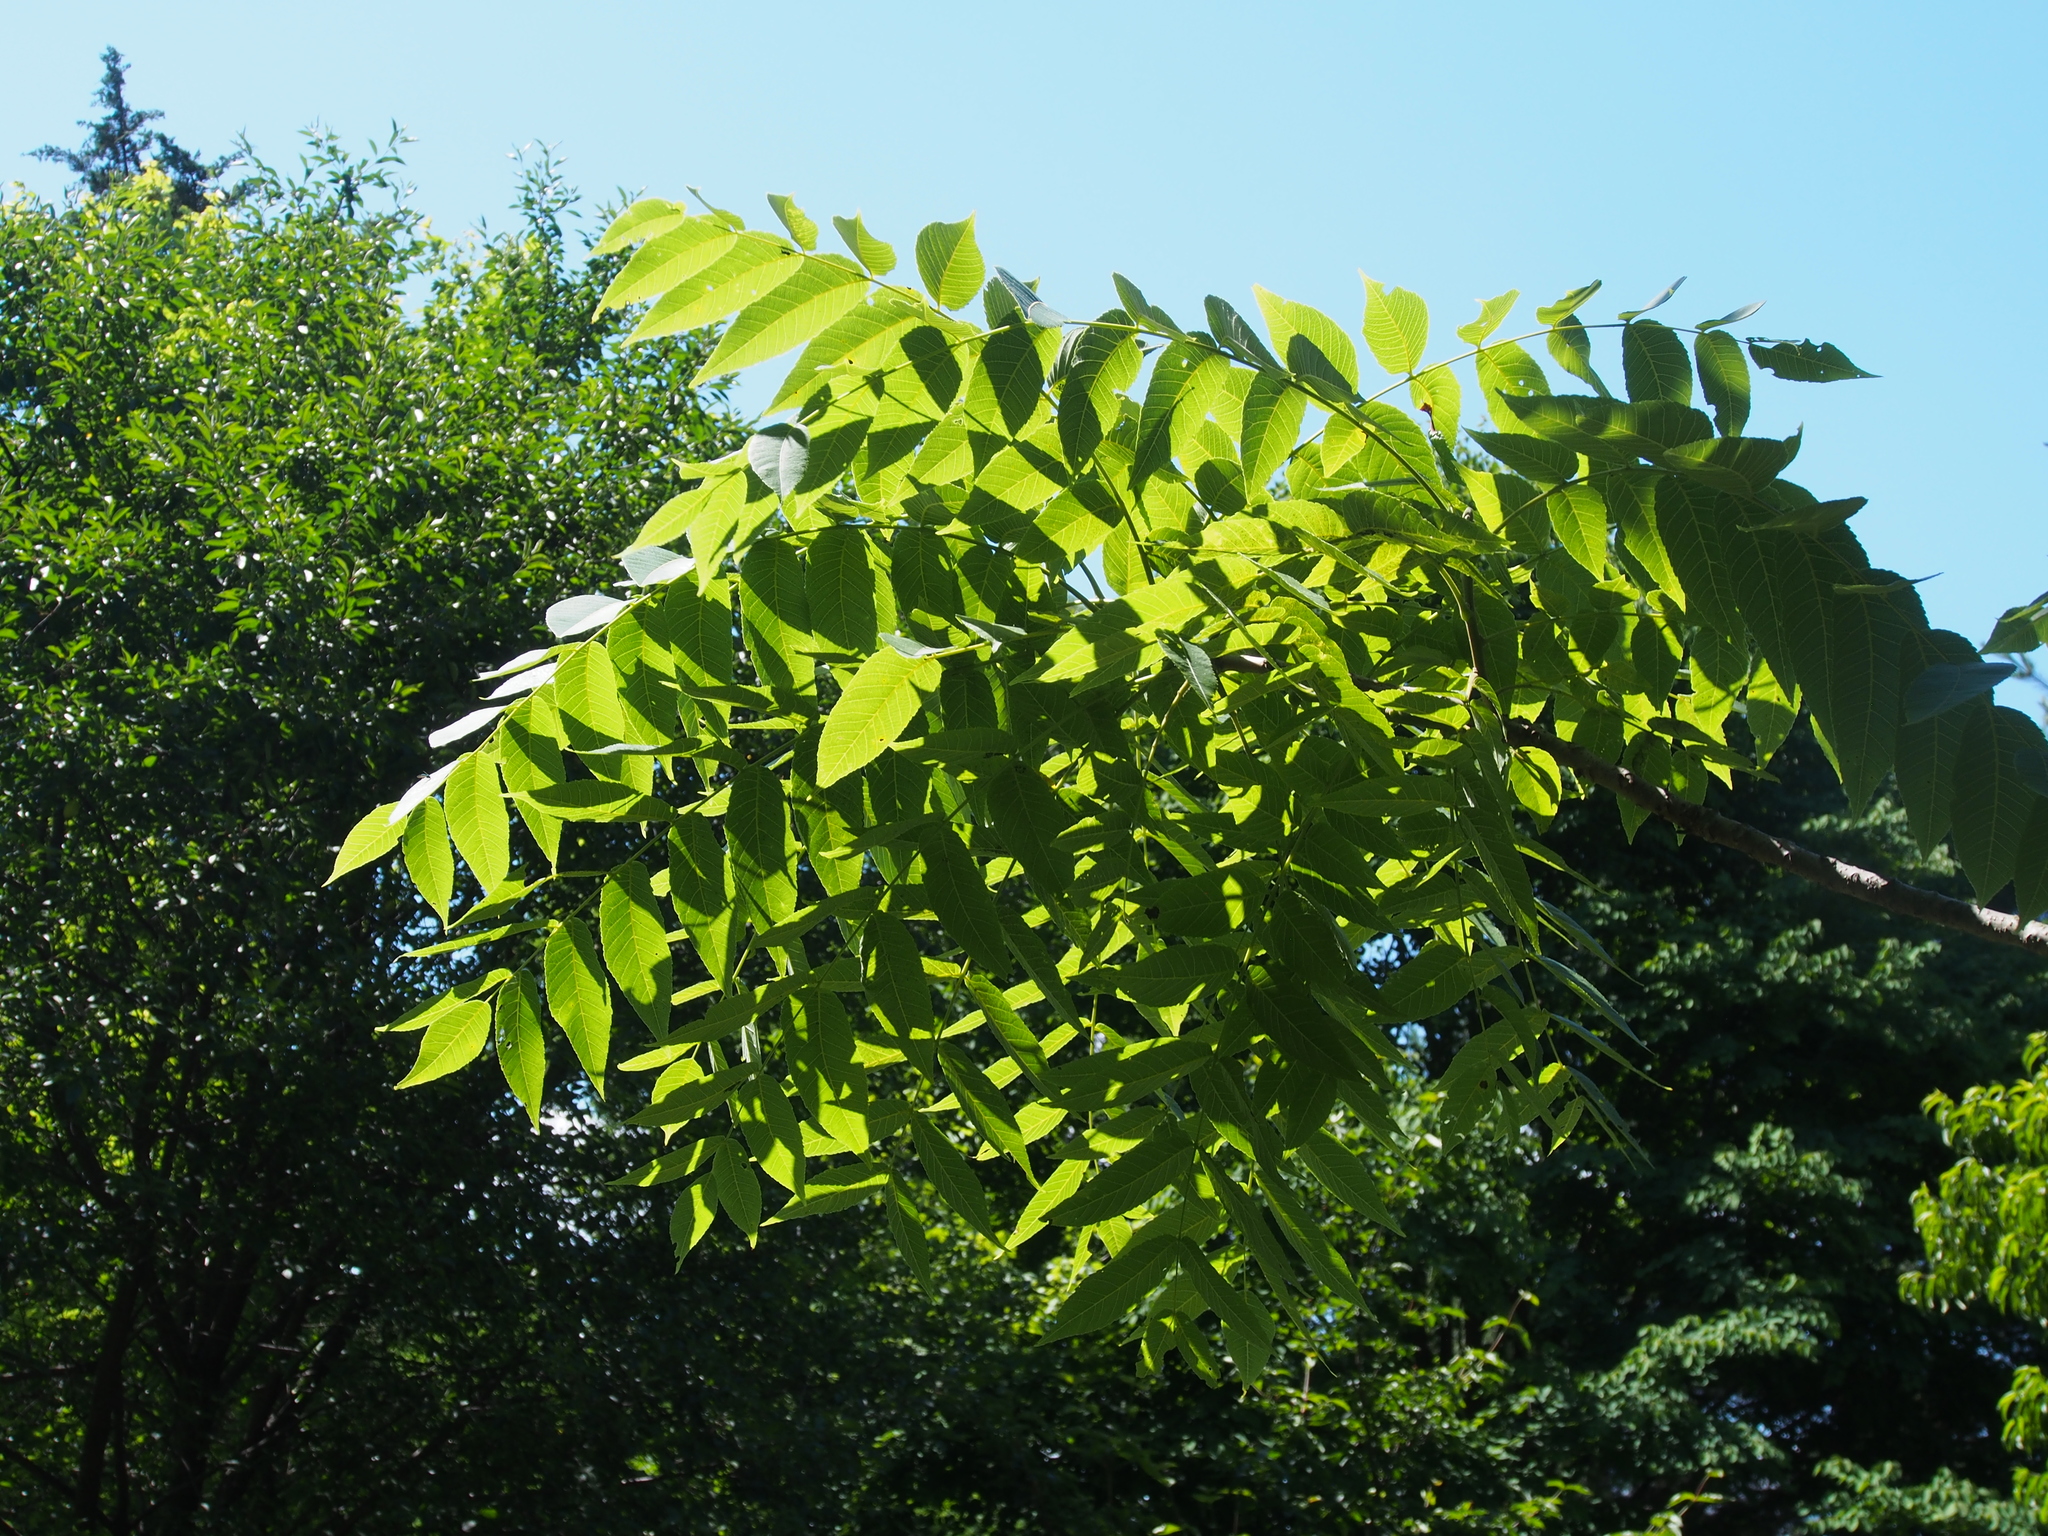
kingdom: Plantae
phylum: Tracheophyta
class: Magnoliopsida
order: Fagales
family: Juglandaceae
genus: Juglans
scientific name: Juglans nigra
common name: Black walnut
